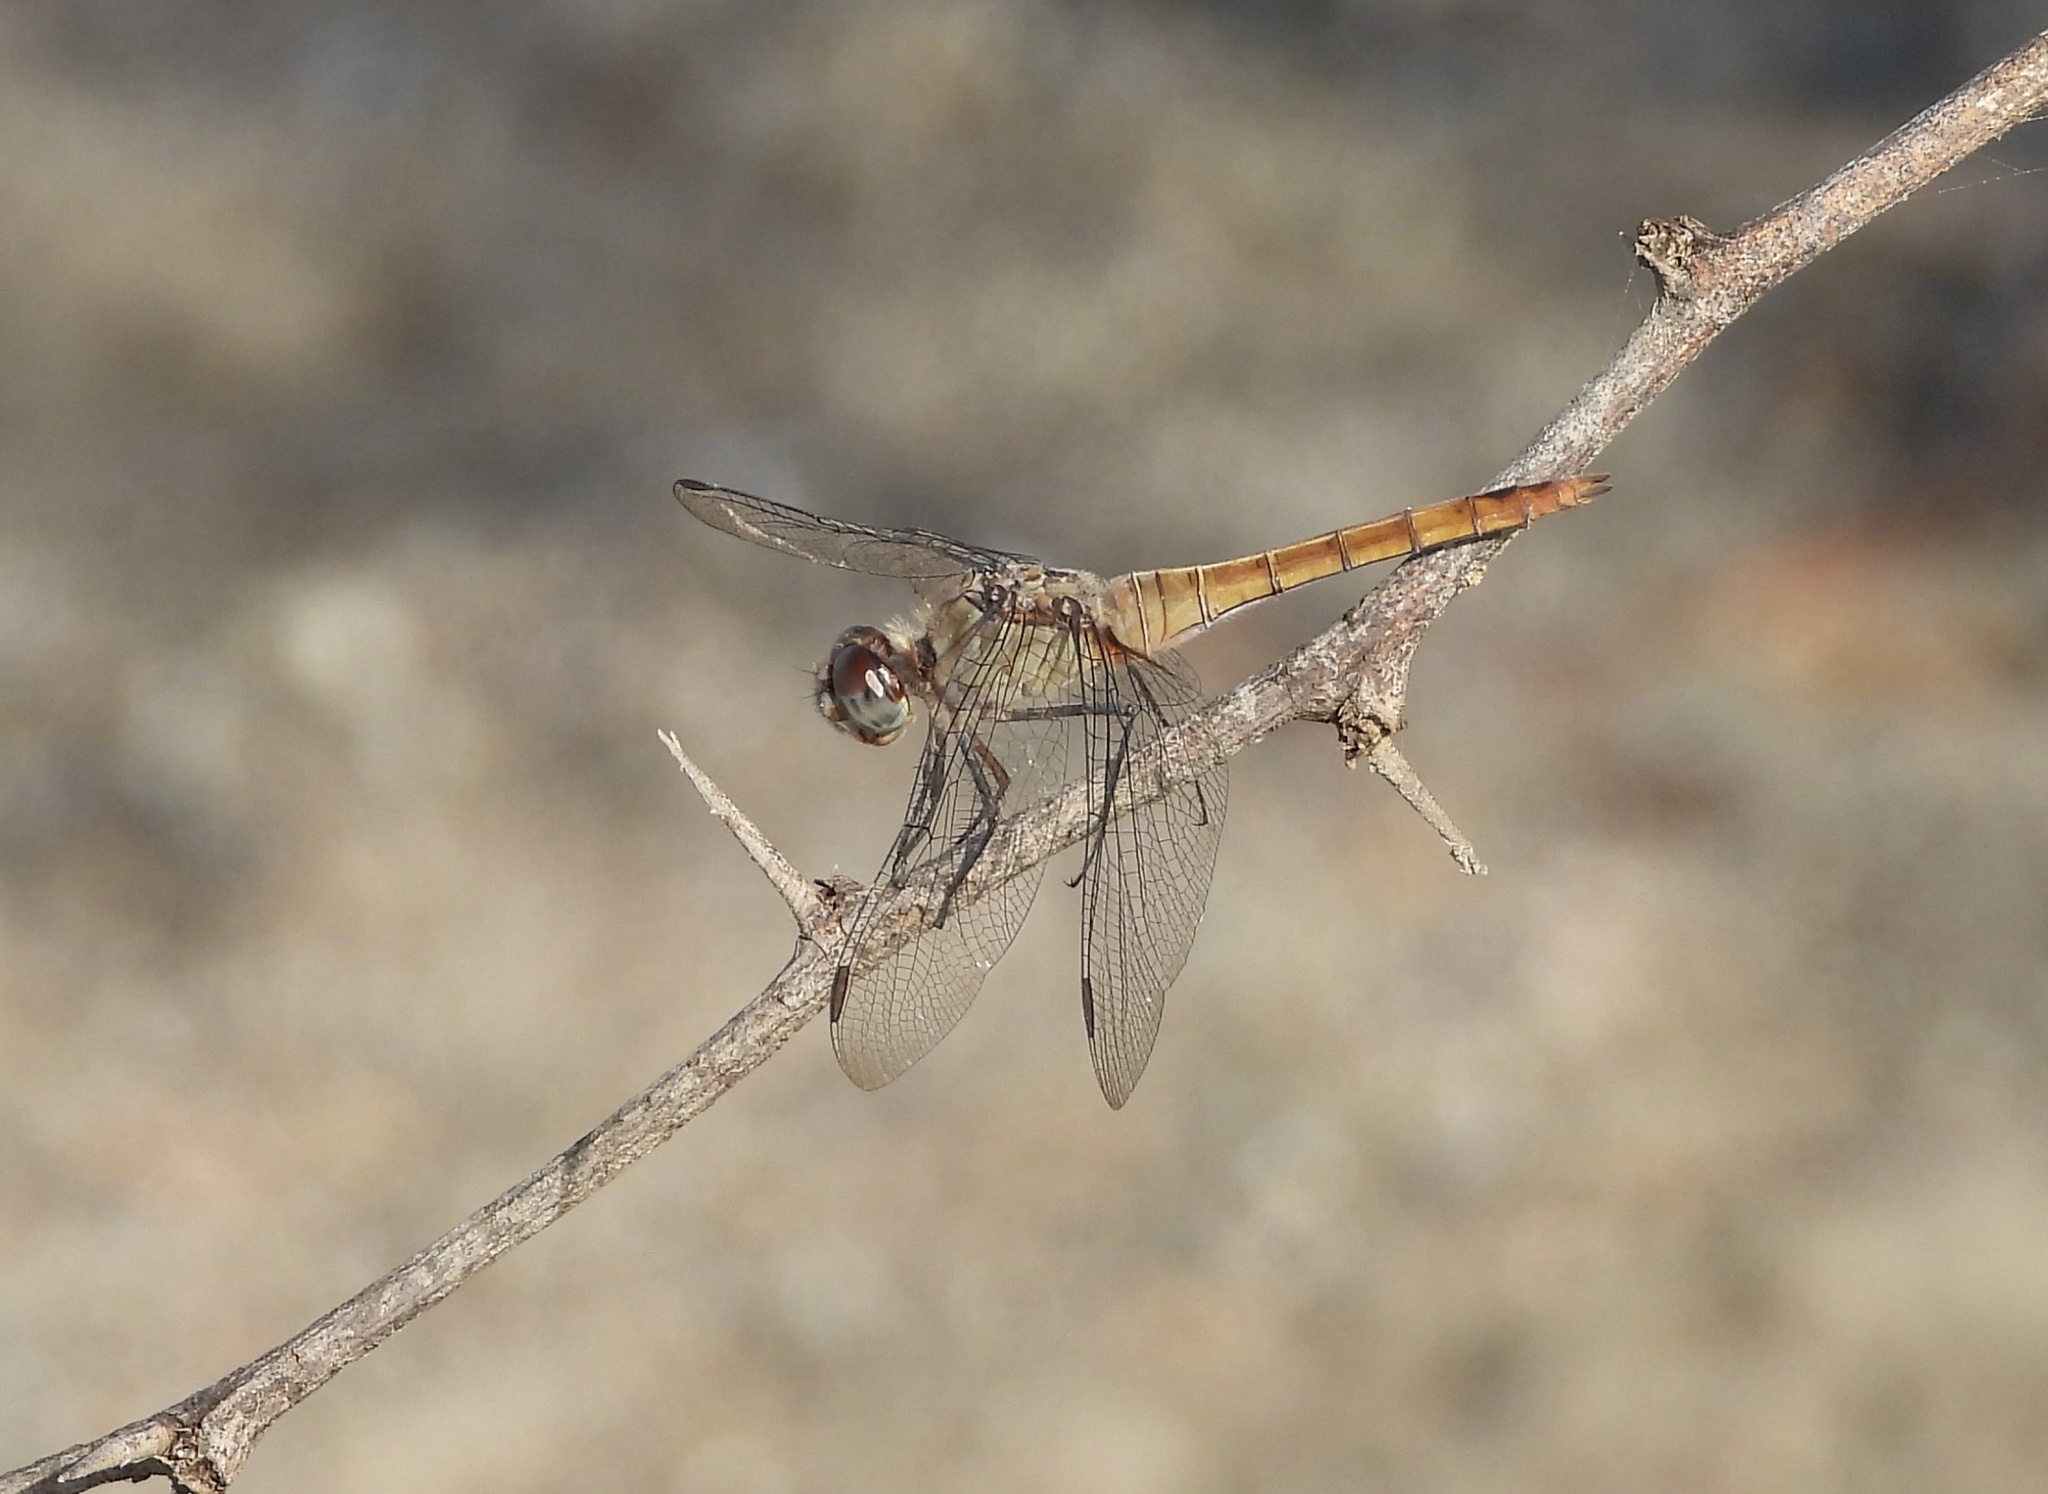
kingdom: Animalia
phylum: Arthropoda
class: Insecta
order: Odonata
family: Libellulidae
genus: Brachymesia
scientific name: Brachymesia furcata
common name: Red-taled pennant
